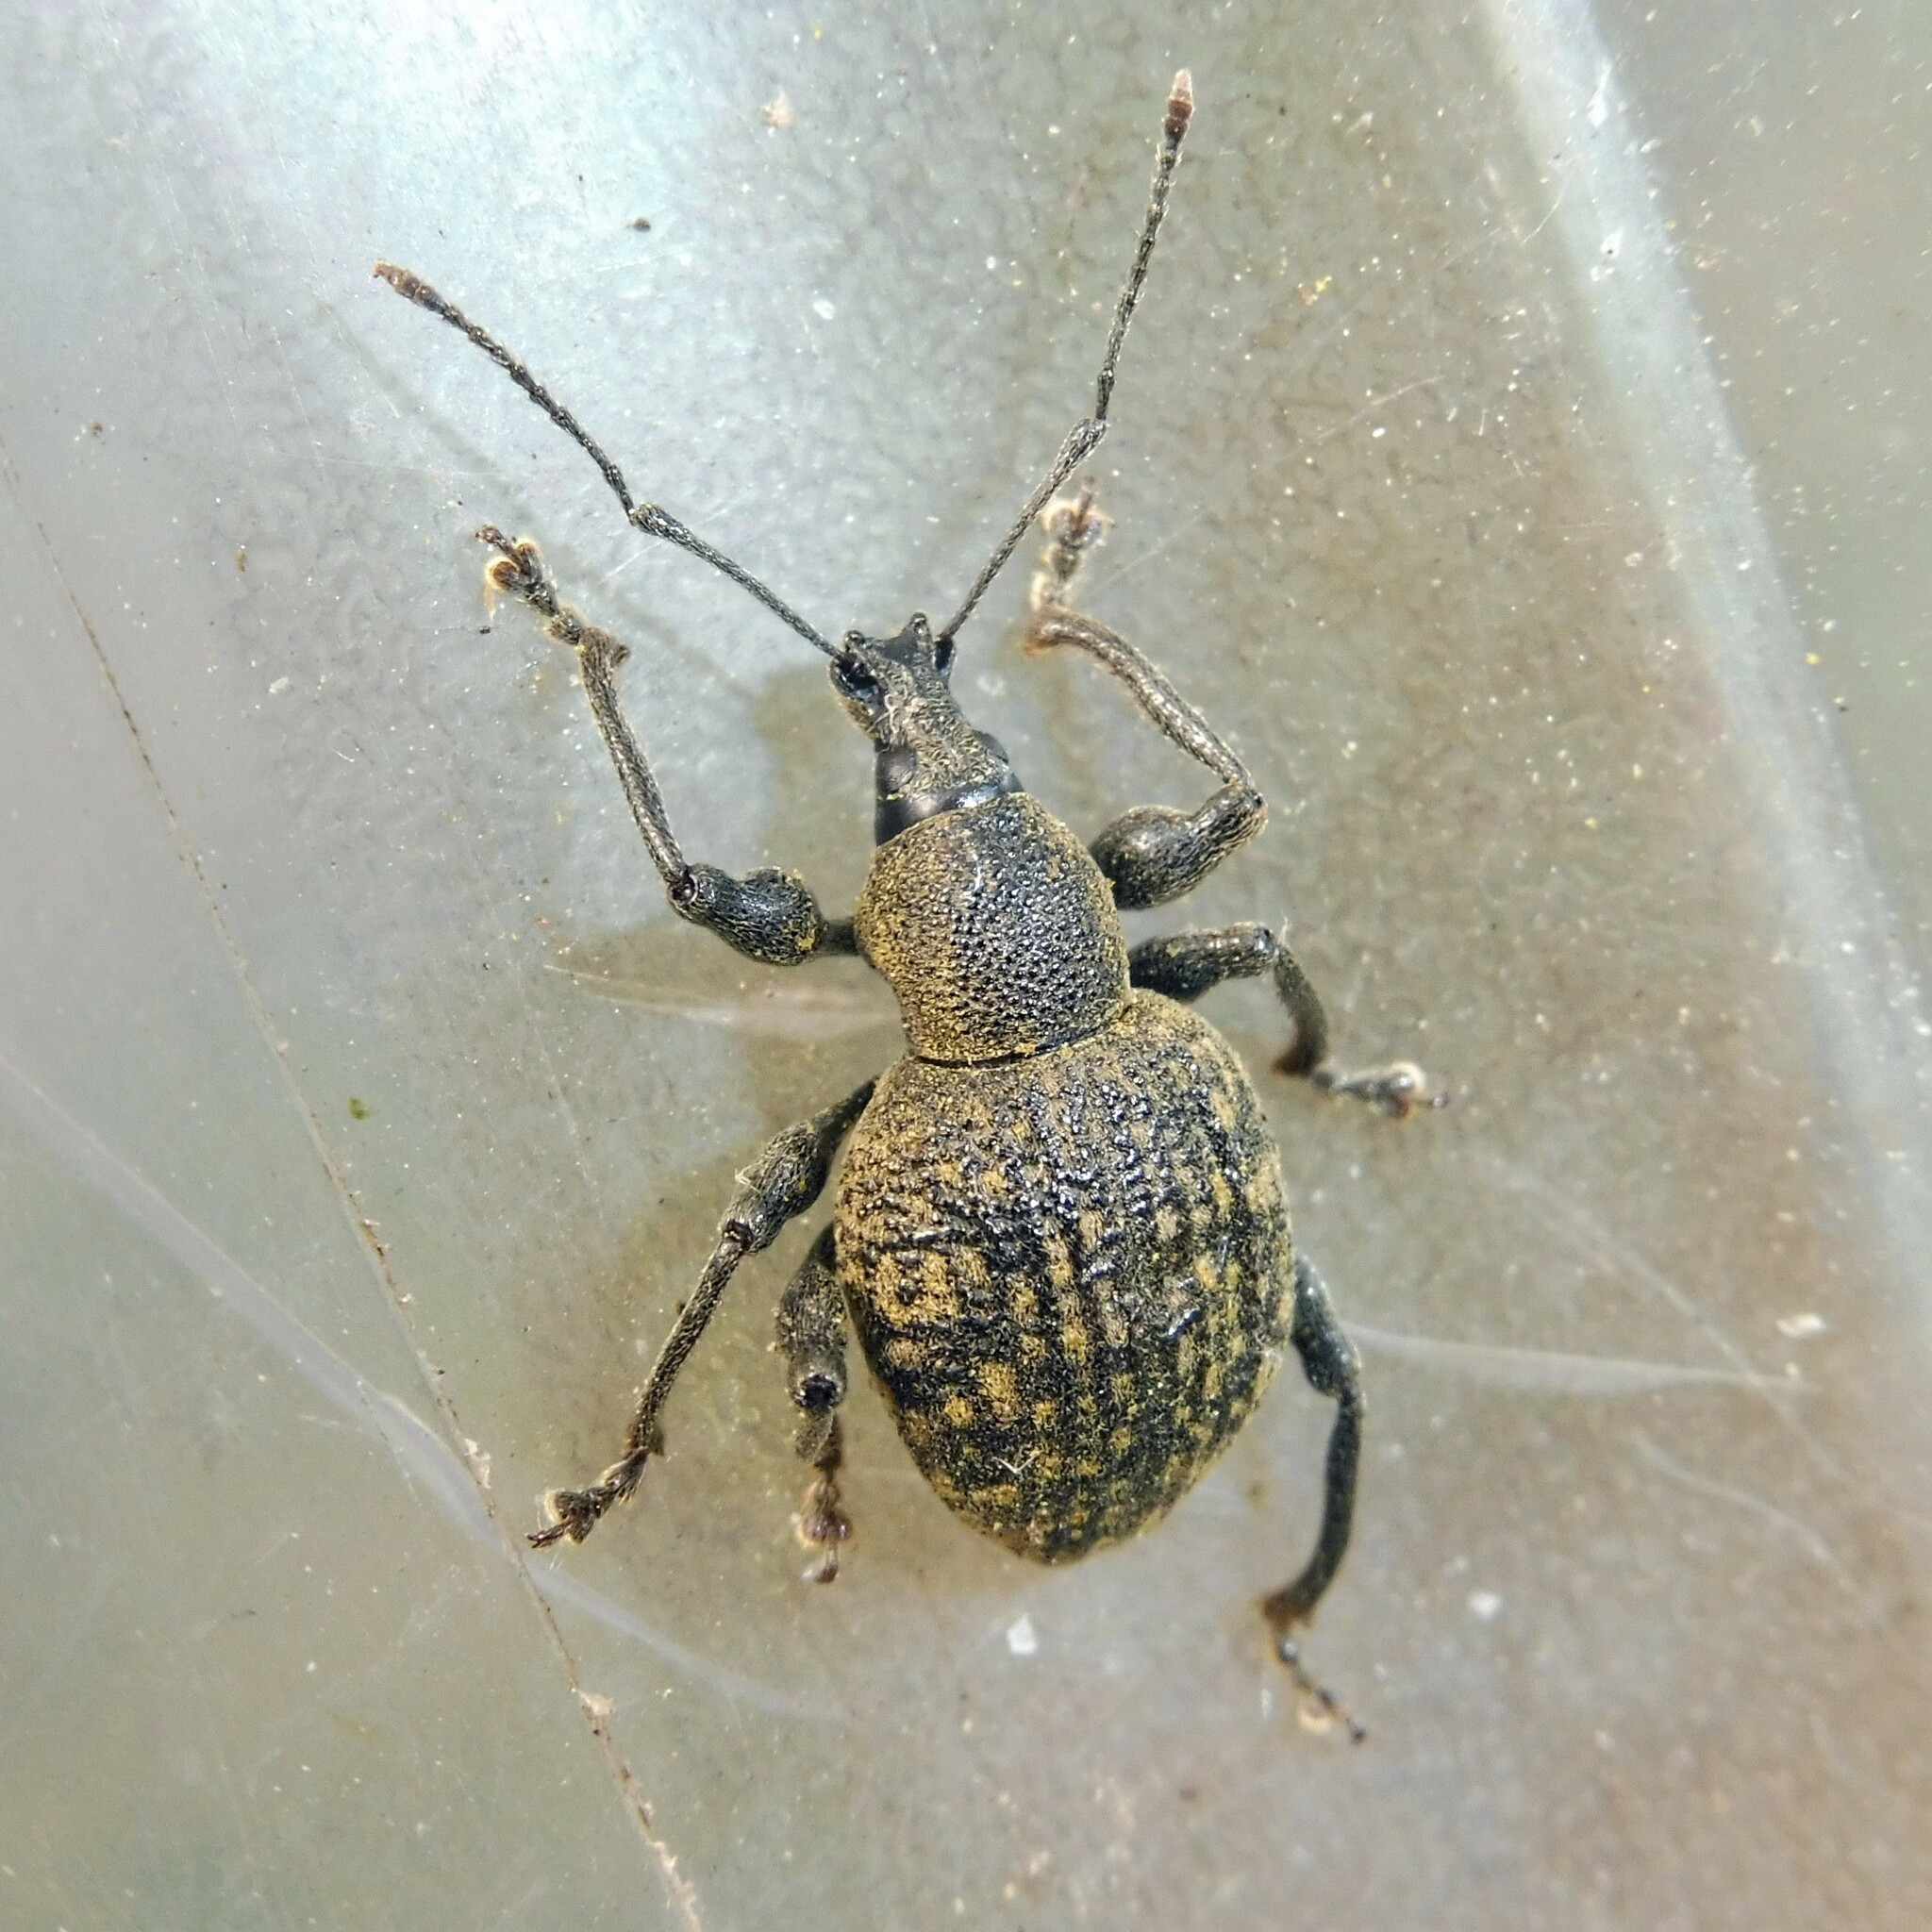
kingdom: Animalia
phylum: Arthropoda
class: Insecta
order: Coleoptera
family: Curculionidae
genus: Otiorhynchus
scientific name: Otiorhynchus armadillo
